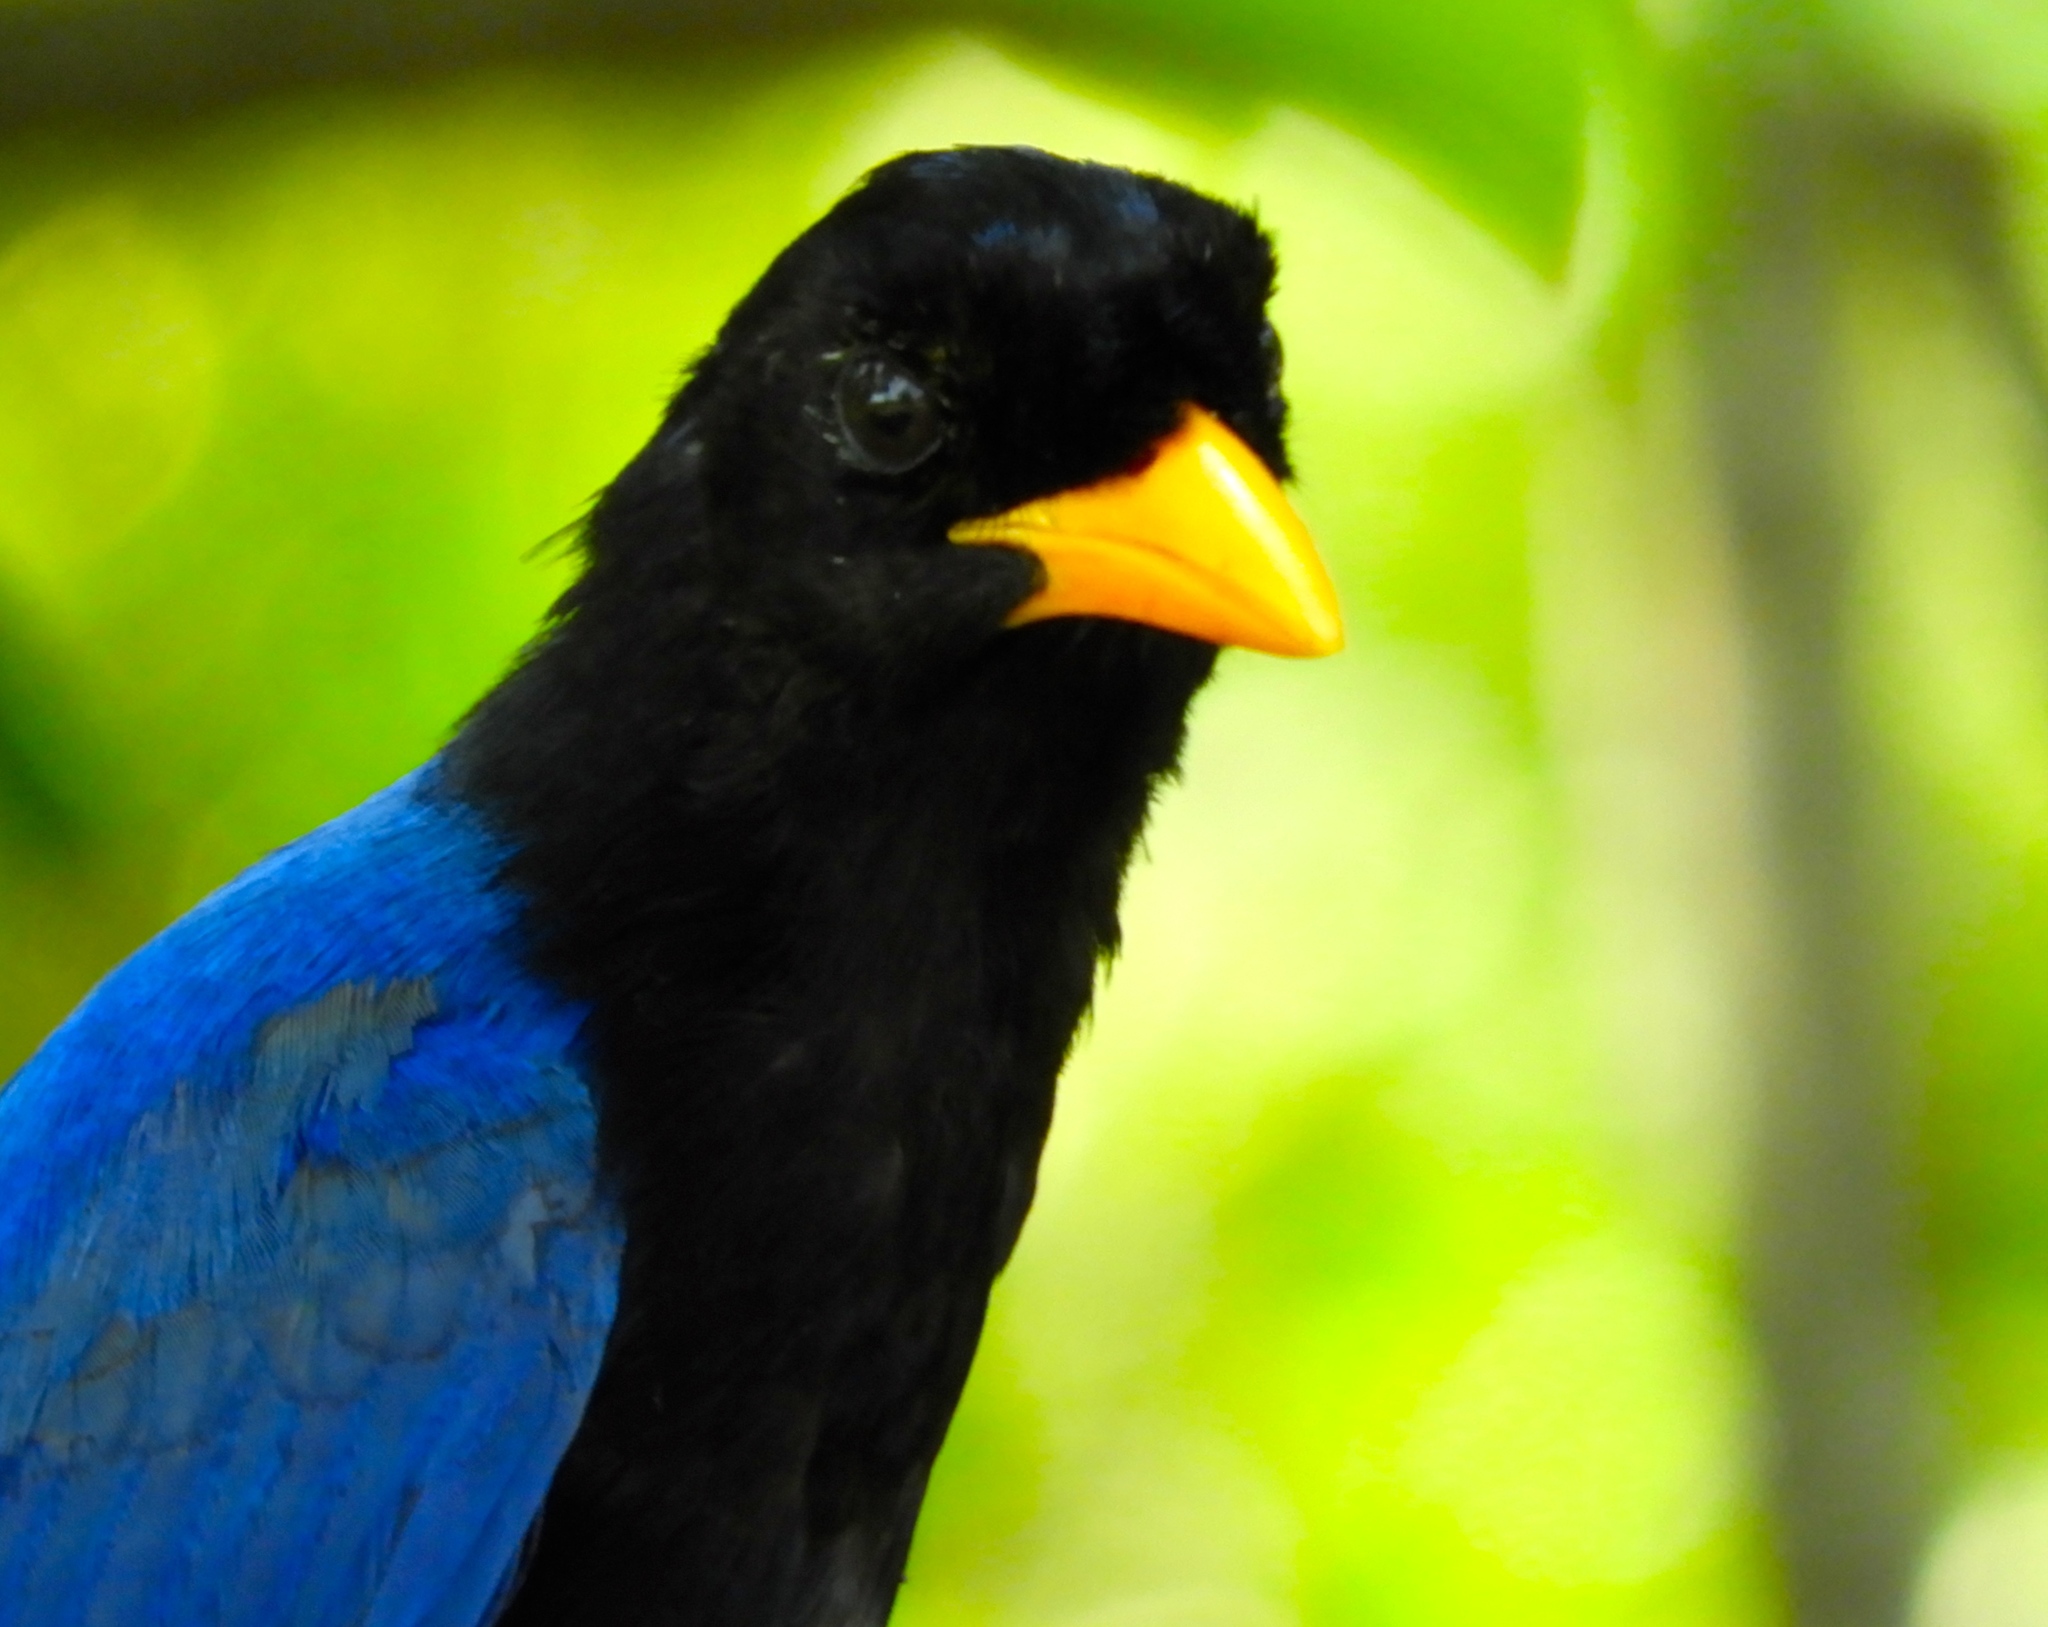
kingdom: Animalia
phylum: Chordata
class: Aves
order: Passeriformes
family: Corvidae
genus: Cyanocorax
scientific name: Cyanocorax beecheii
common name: Purplish-backed jay
